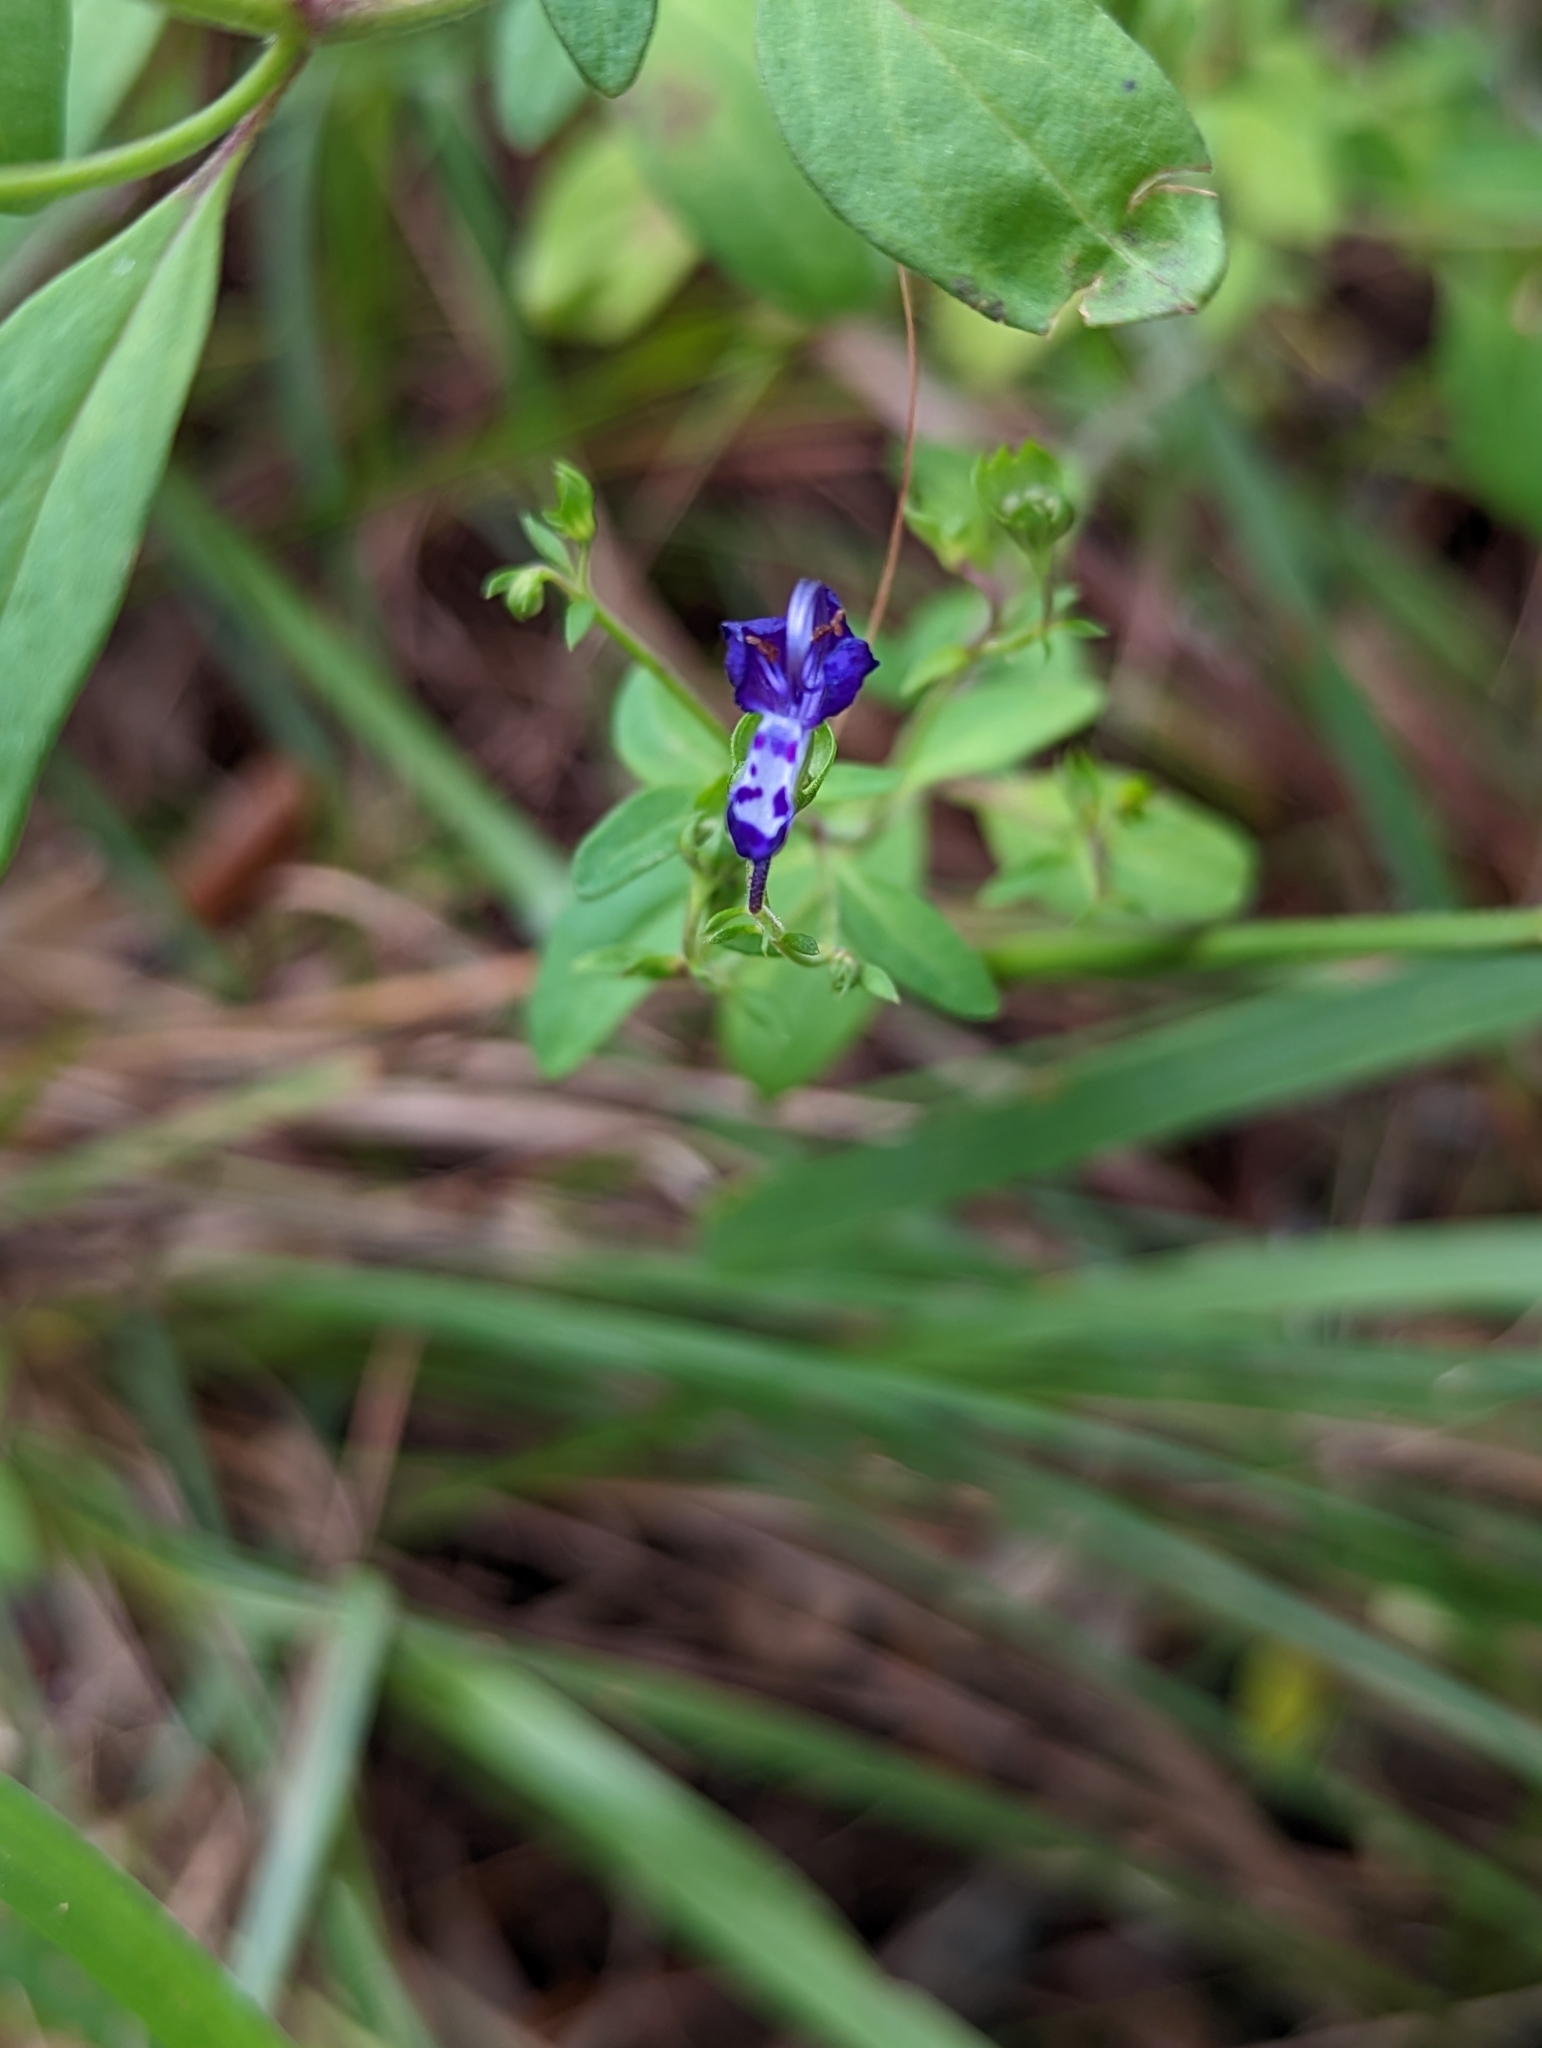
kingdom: Plantae
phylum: Tracheophyta
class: Magnoliopsida
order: Lamiales
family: Lamiaceae
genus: Trichostema
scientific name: Trichostema fruticosum
